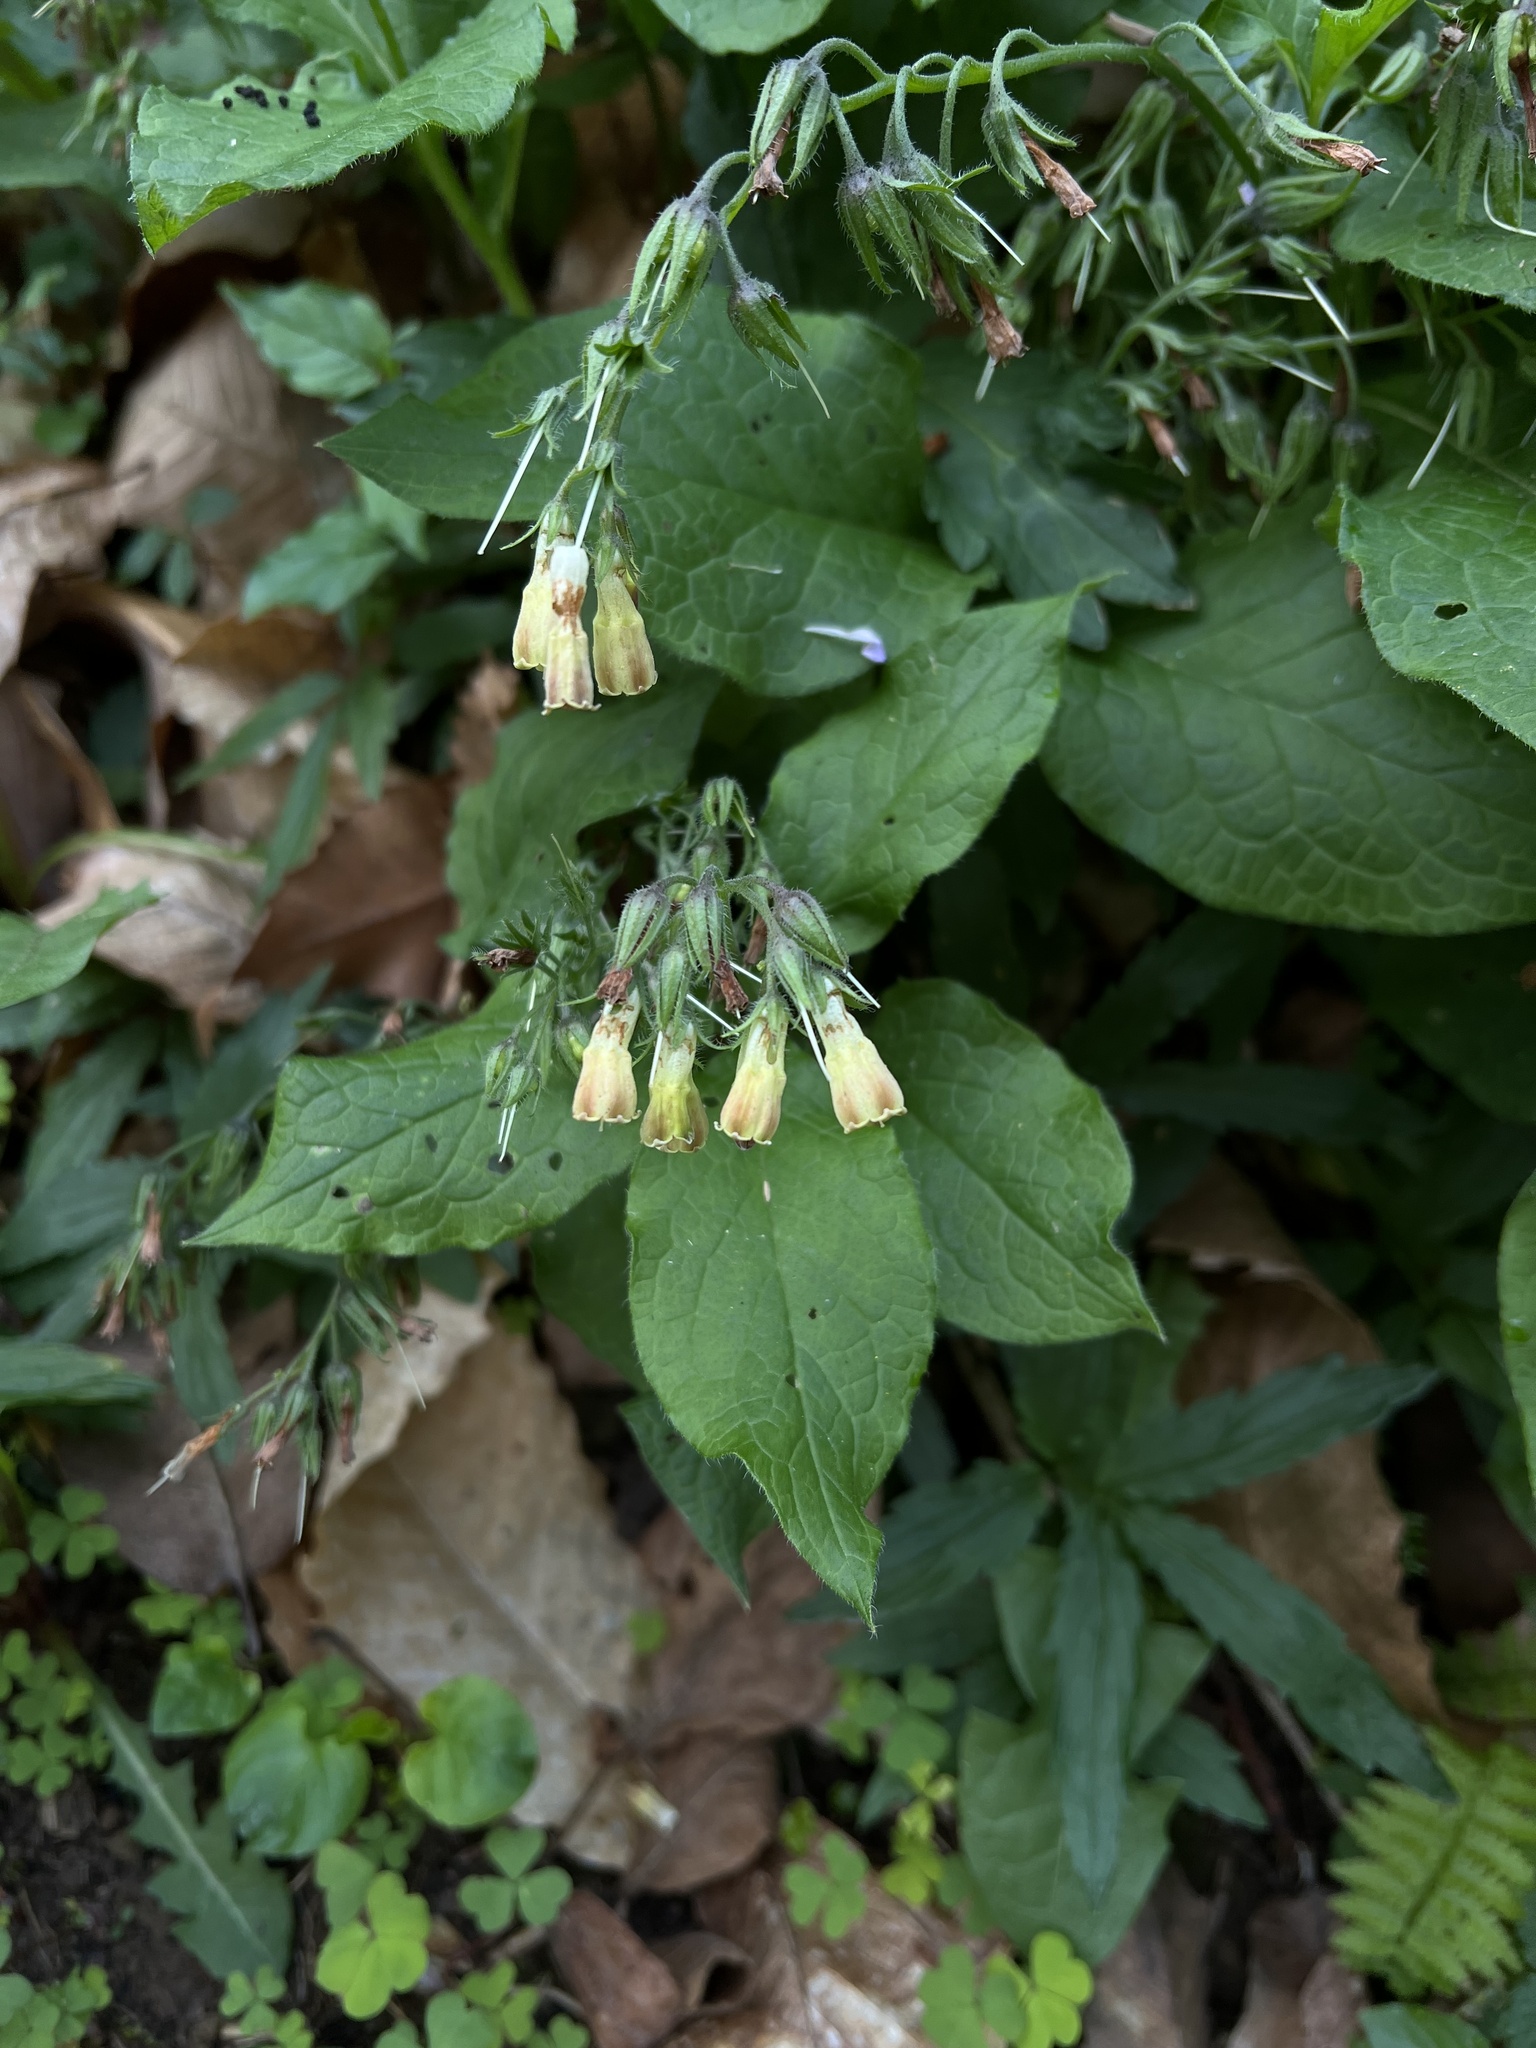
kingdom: Plantae
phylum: Tracheophyta
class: Magnoliopsida
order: Boraginales
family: Boraginaceae
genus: Symphytum
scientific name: Symphytum tuberosum
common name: Tuberous comfrey
